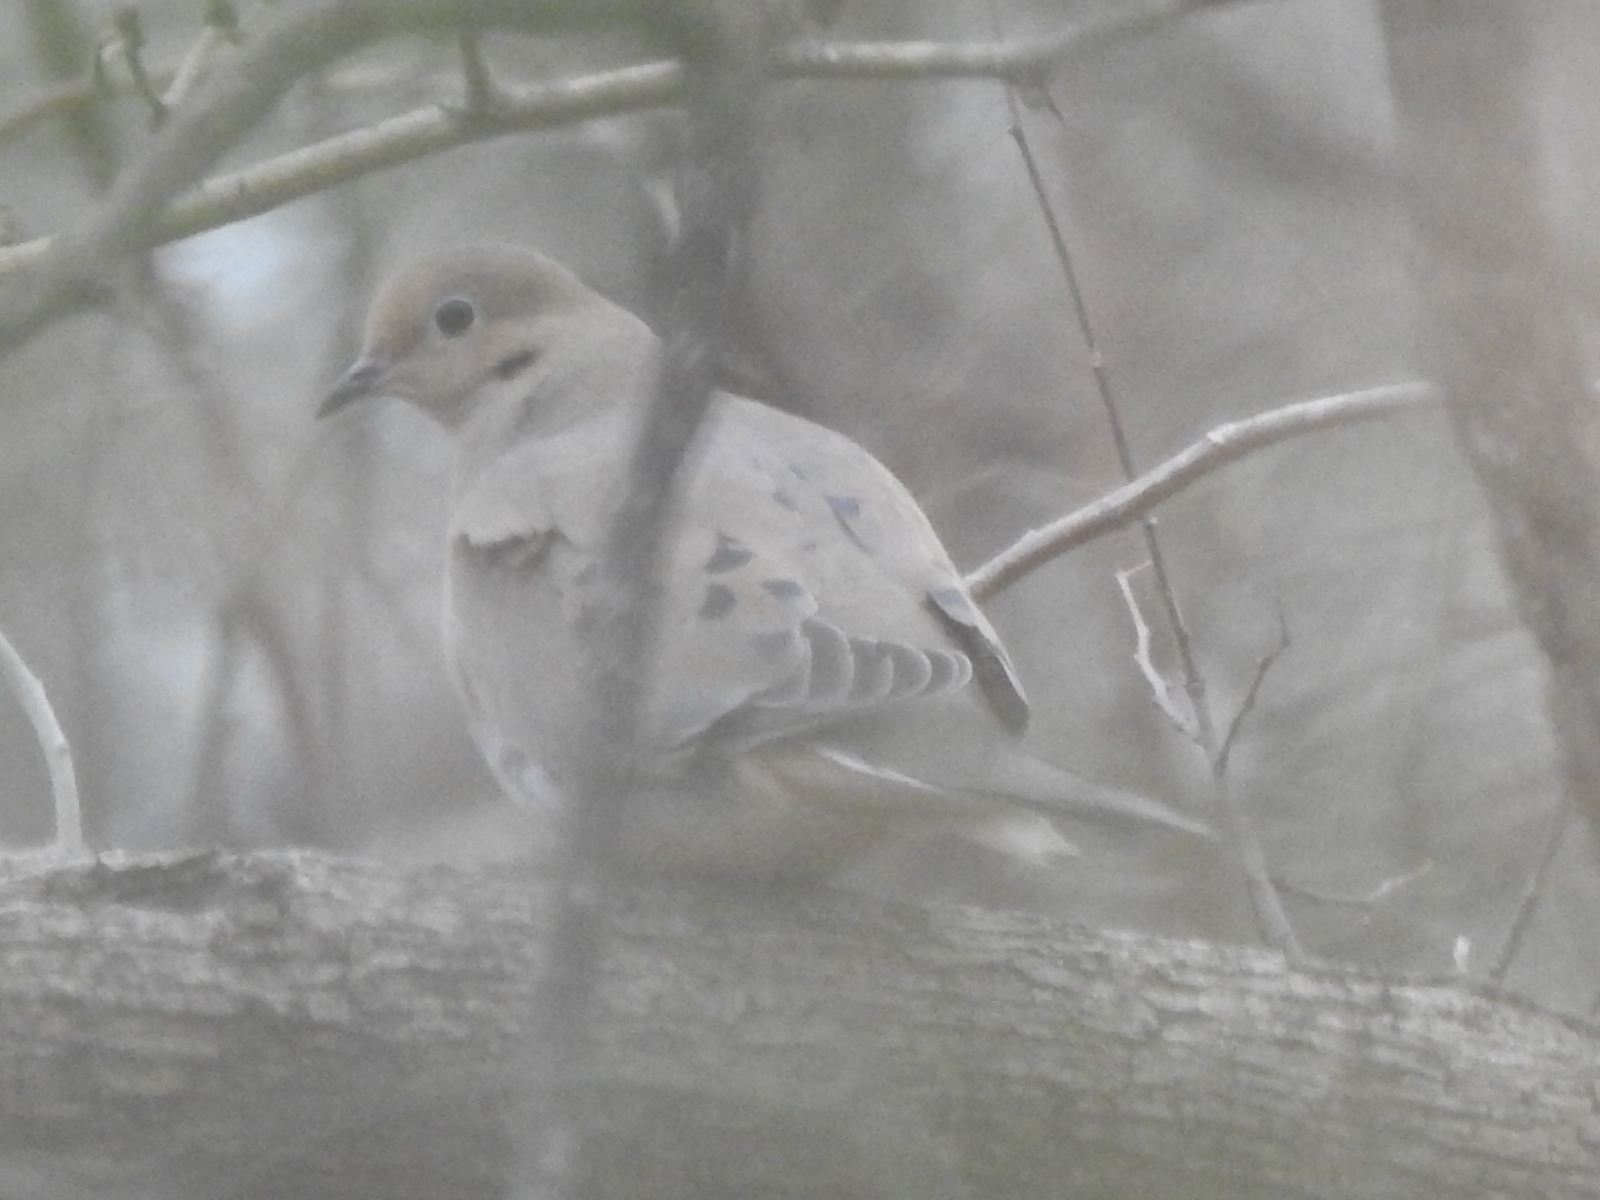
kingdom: Animalia
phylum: Chordata
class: Aves
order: Columbiformes
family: Columbidae
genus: Zenaida
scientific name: Zenaida macroura
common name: Mourning dove
